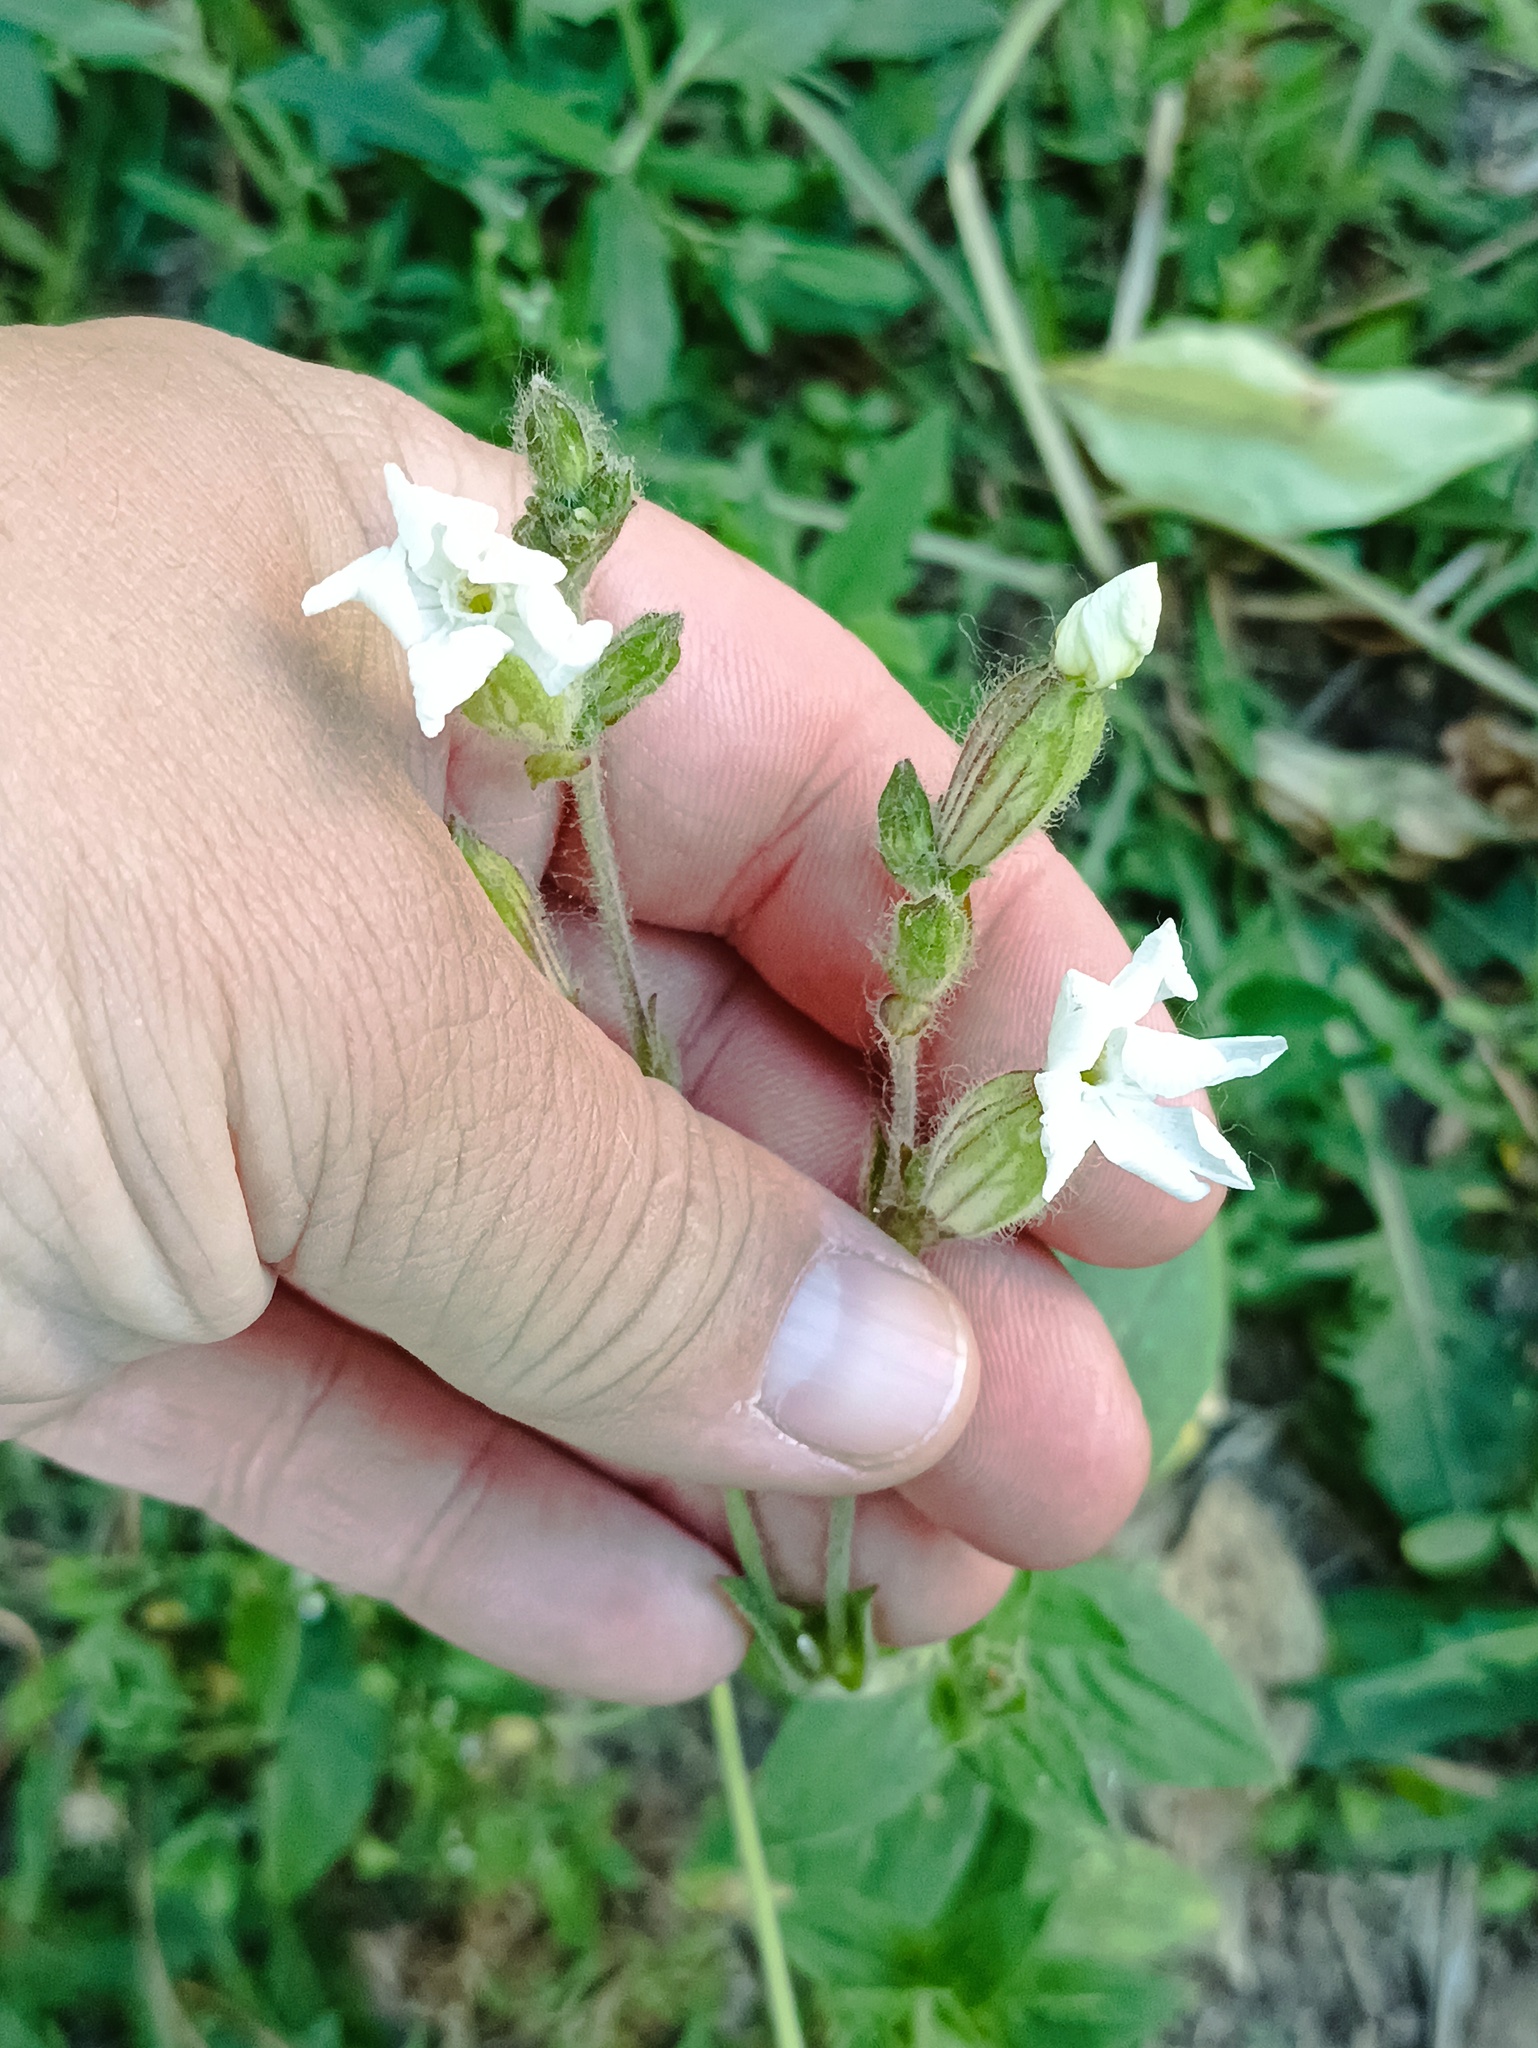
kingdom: Plantae
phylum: Tracheophyta
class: Magnoliopsida
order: Caryophyllales
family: Caryophyllaceae
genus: Silene
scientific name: Silene latifolia
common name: White campion
